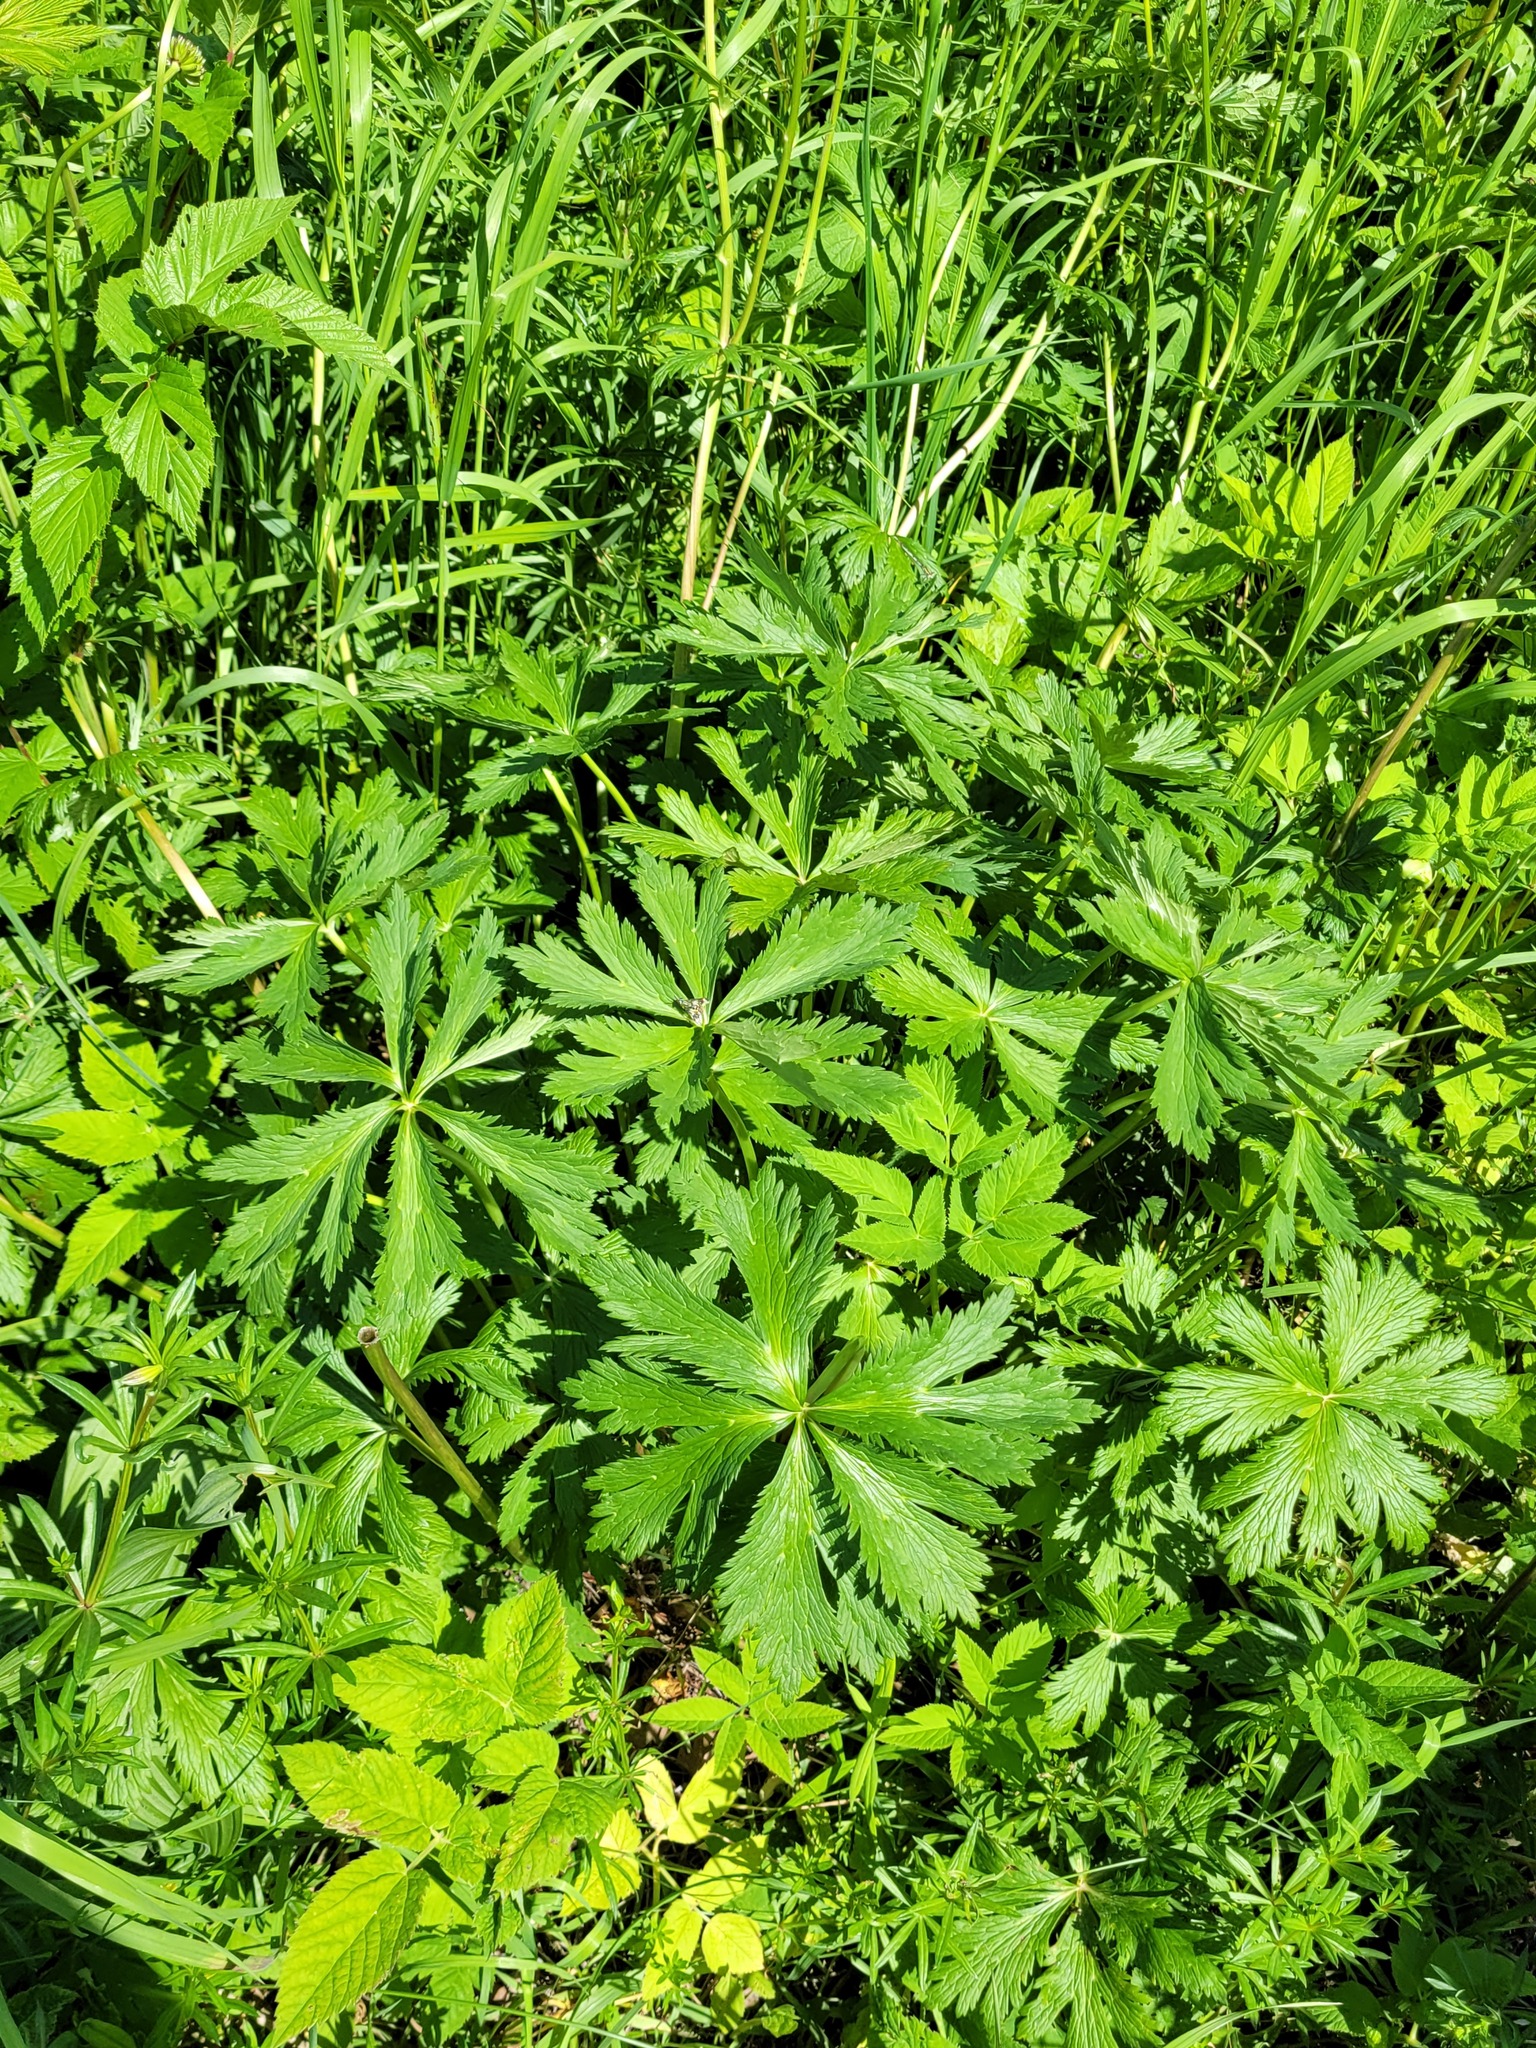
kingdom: Plantae
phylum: Tracheophyta
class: Magnoliopsida
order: Ranunculales
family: Ranunculaceae
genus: Trollius
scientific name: Trollius europaeus
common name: European globeflower
